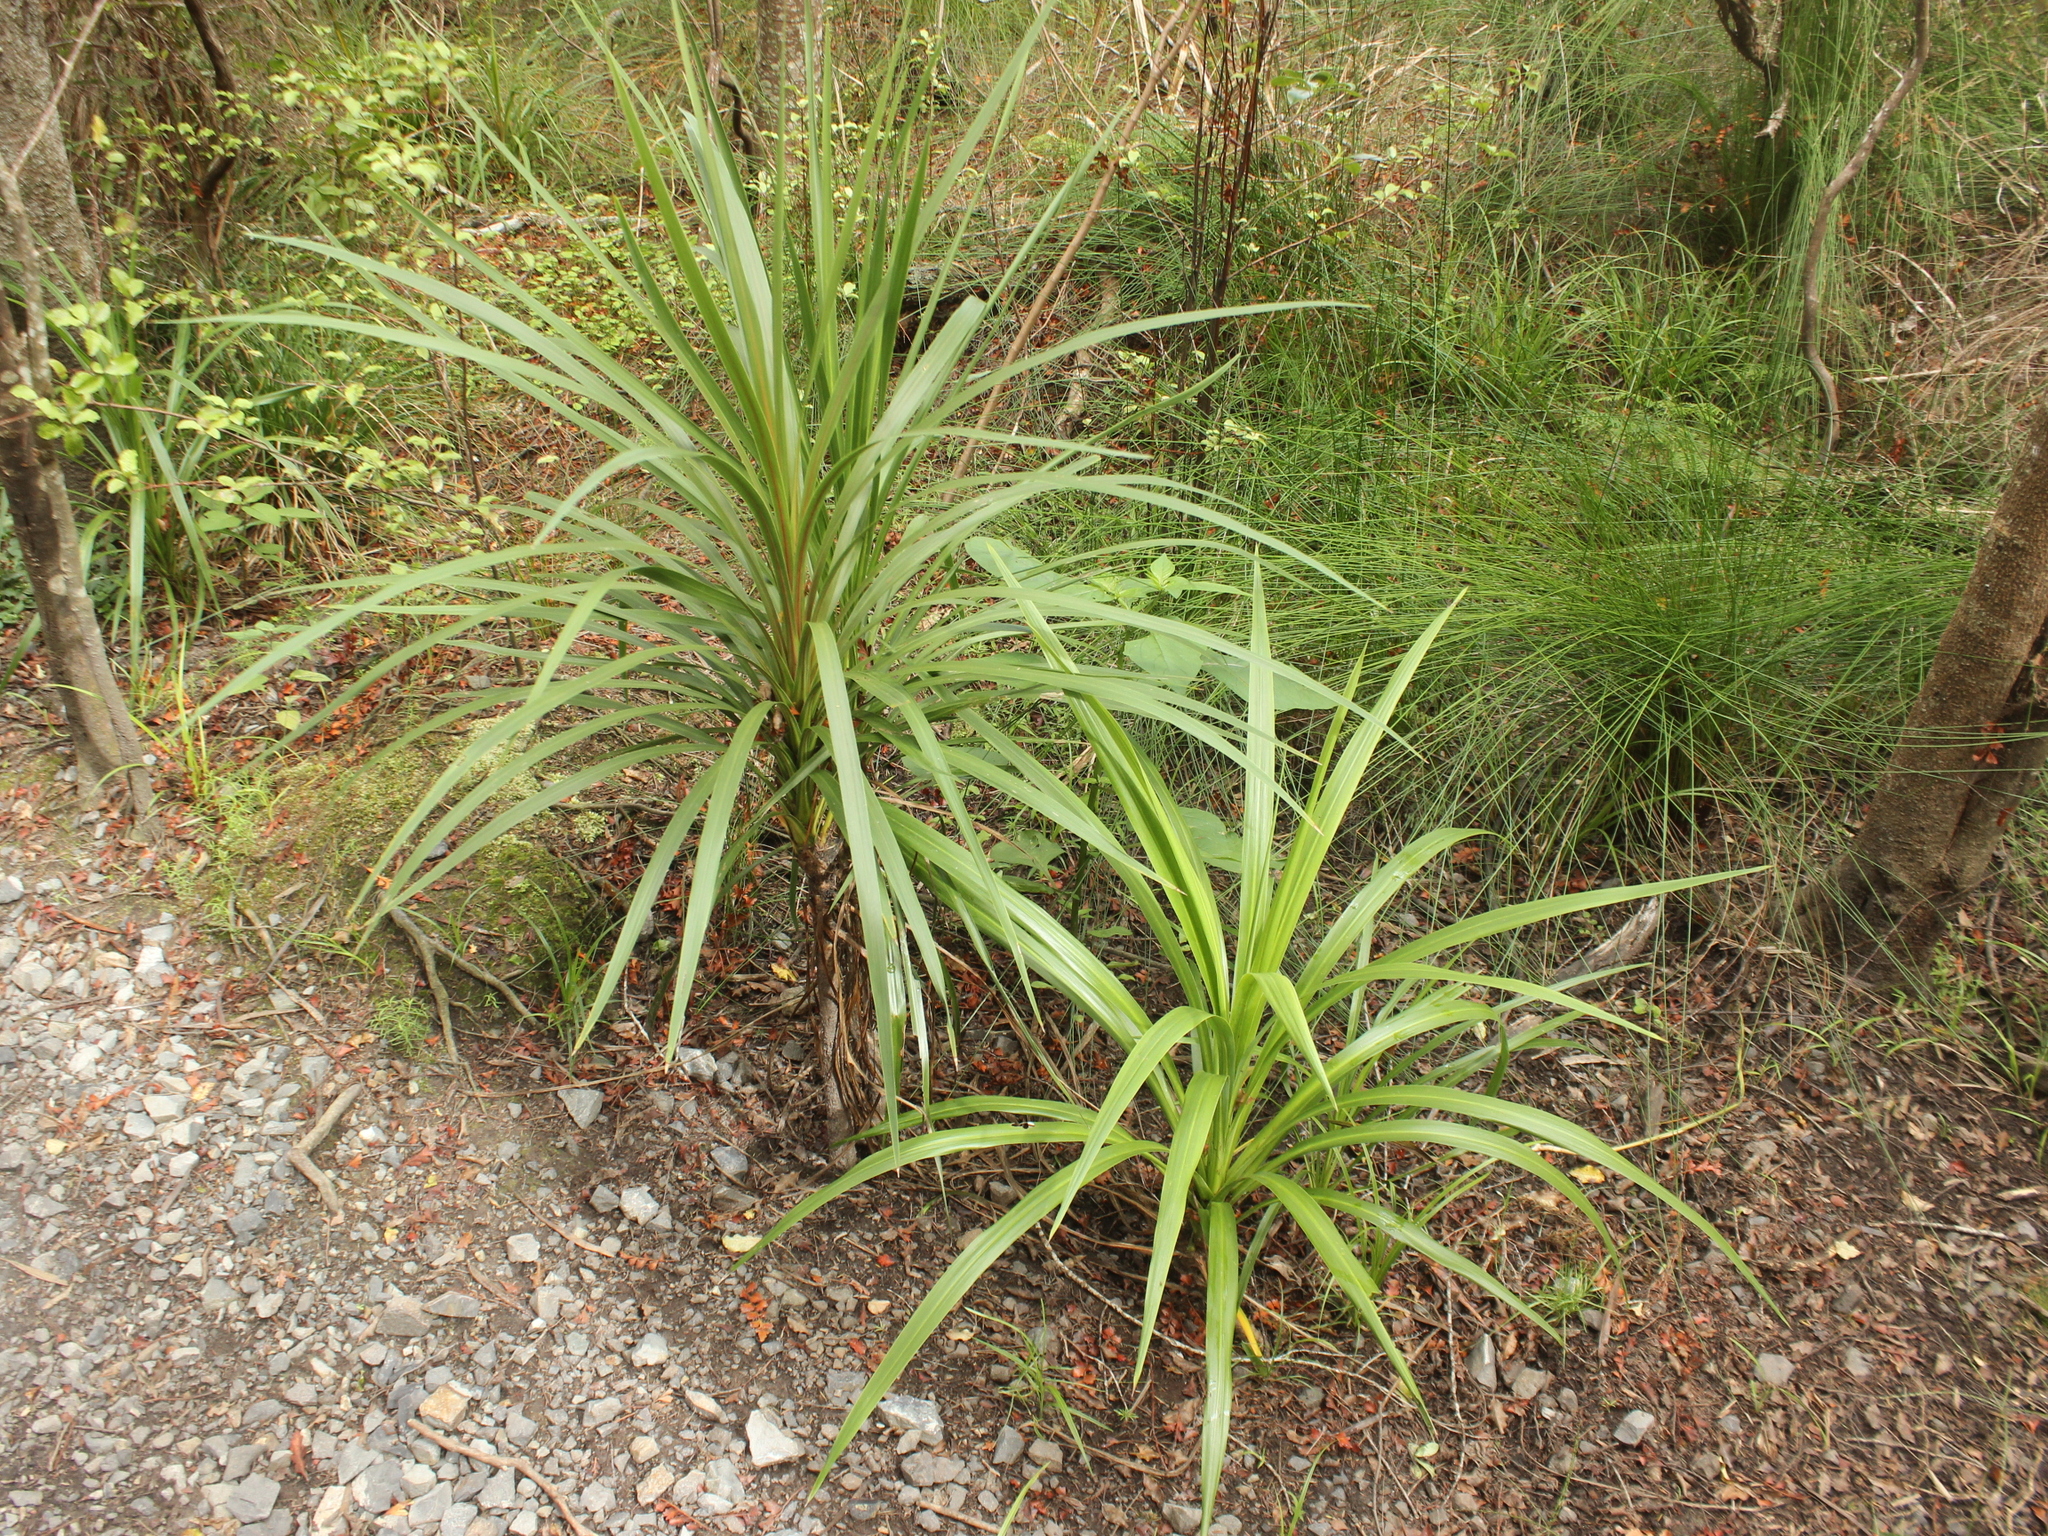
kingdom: Plantae
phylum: Tracheophyta
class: Liliopsida
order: Asparagales
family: Asparagaceae
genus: Cordyline
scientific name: Cordyline australis
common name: Cabbage-palm
